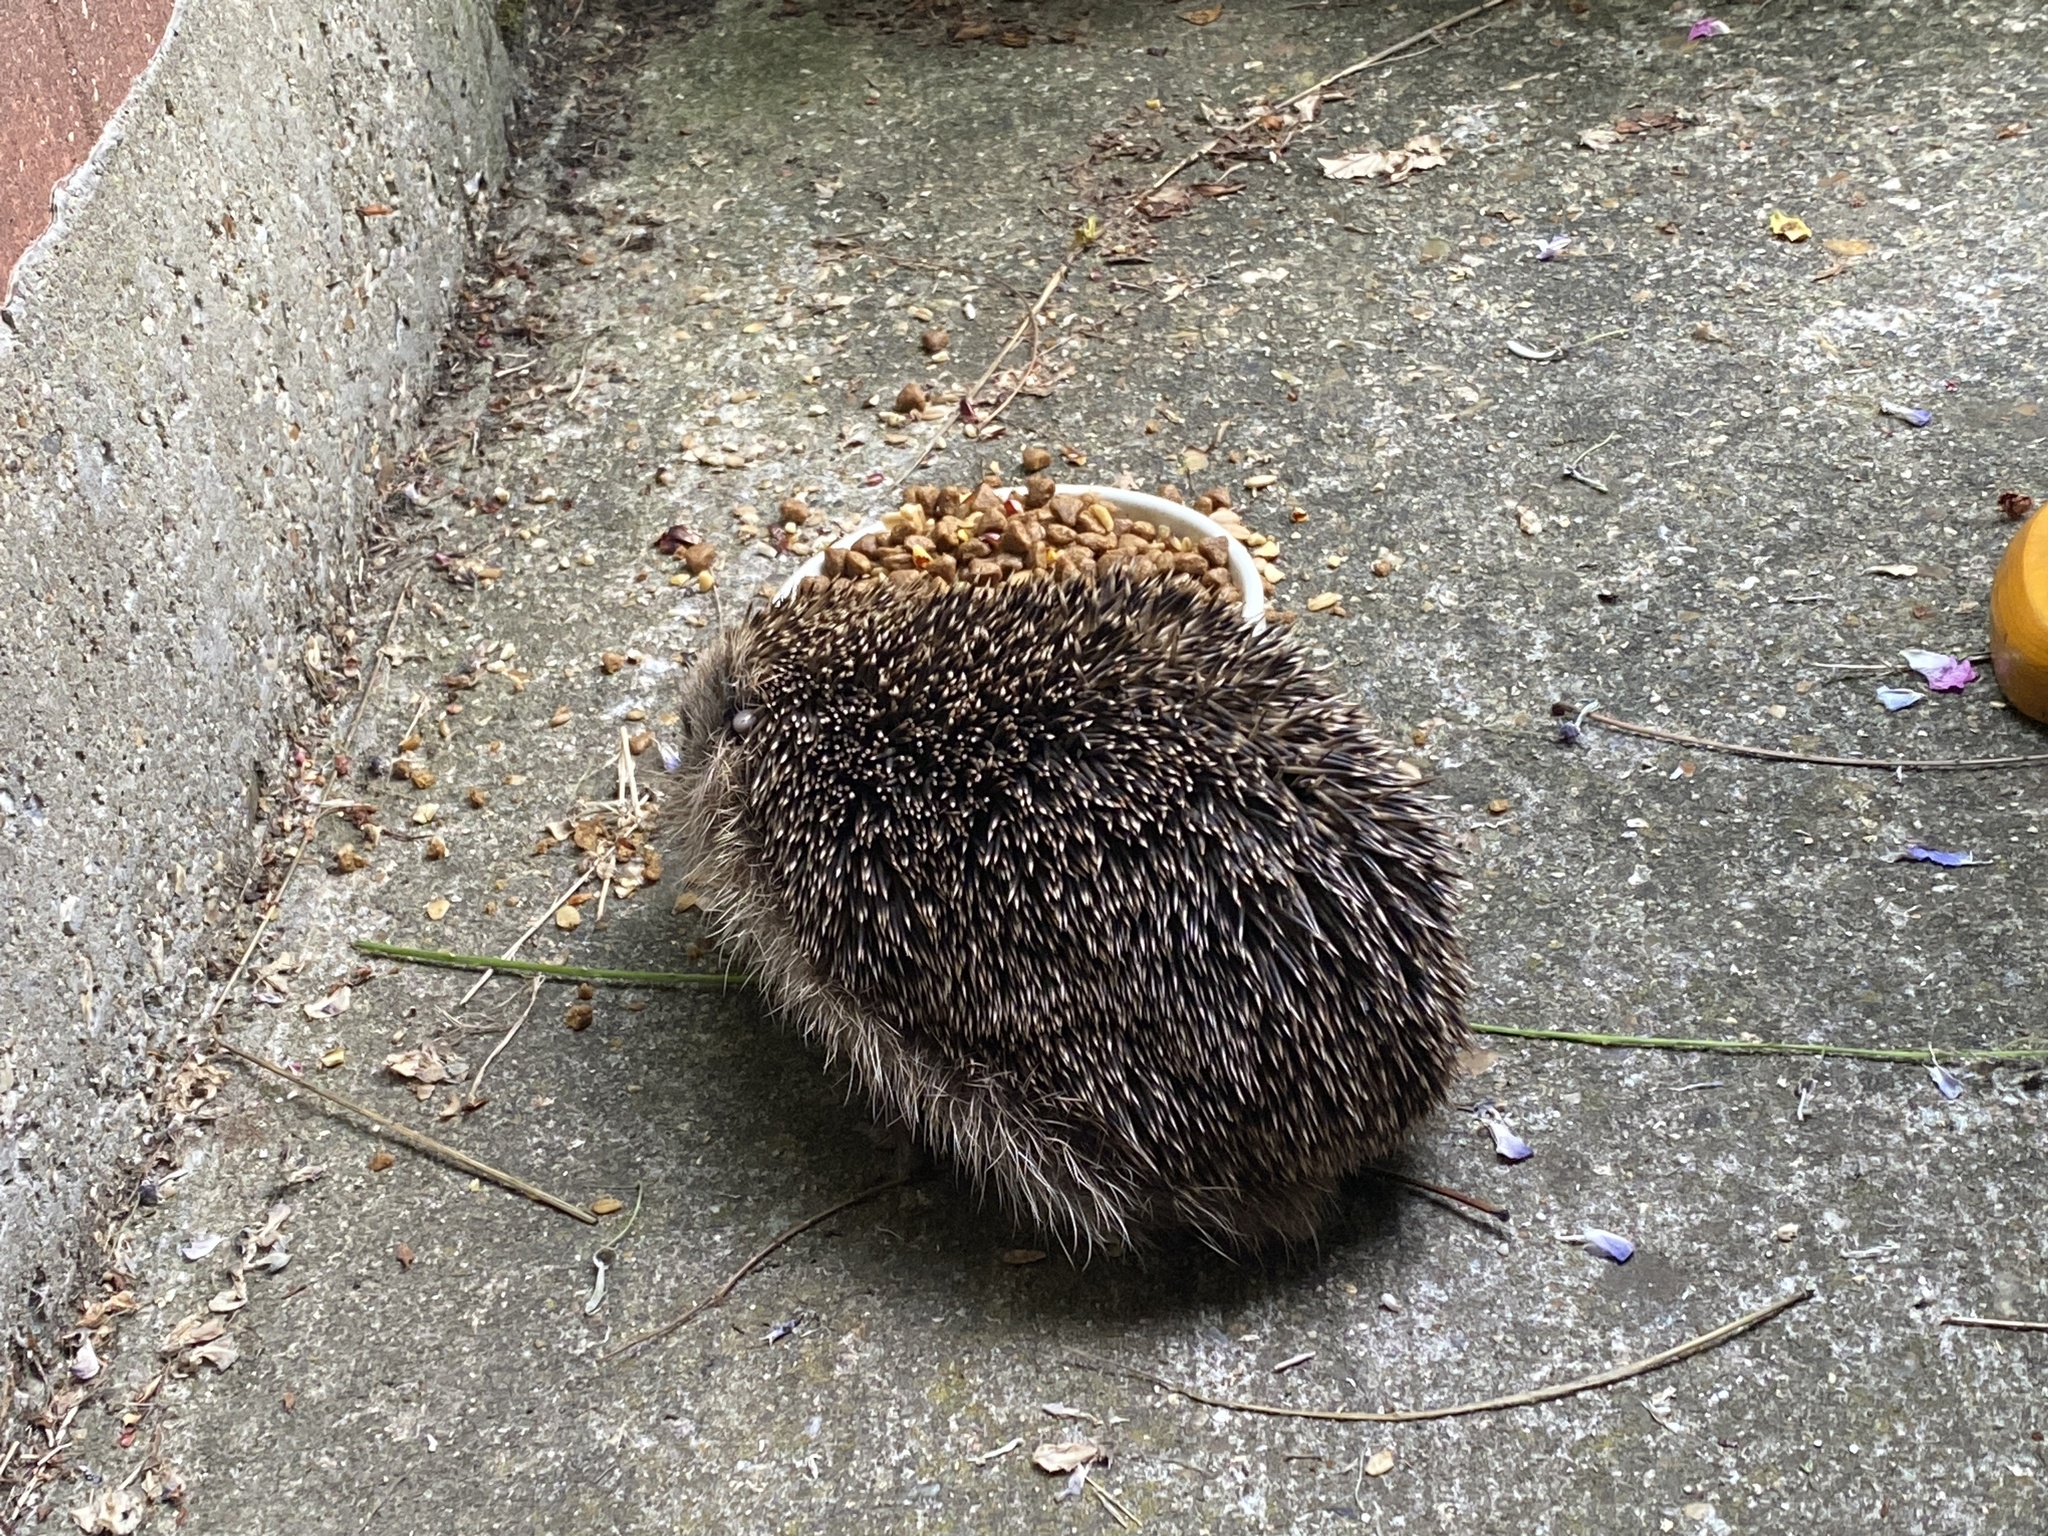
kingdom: Animalia
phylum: Chordata
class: Mammalia
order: Erinaceomorpha
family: Erinaceidae
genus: Erinaceus
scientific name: Erinaceus europaeus
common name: West european hedgehog
